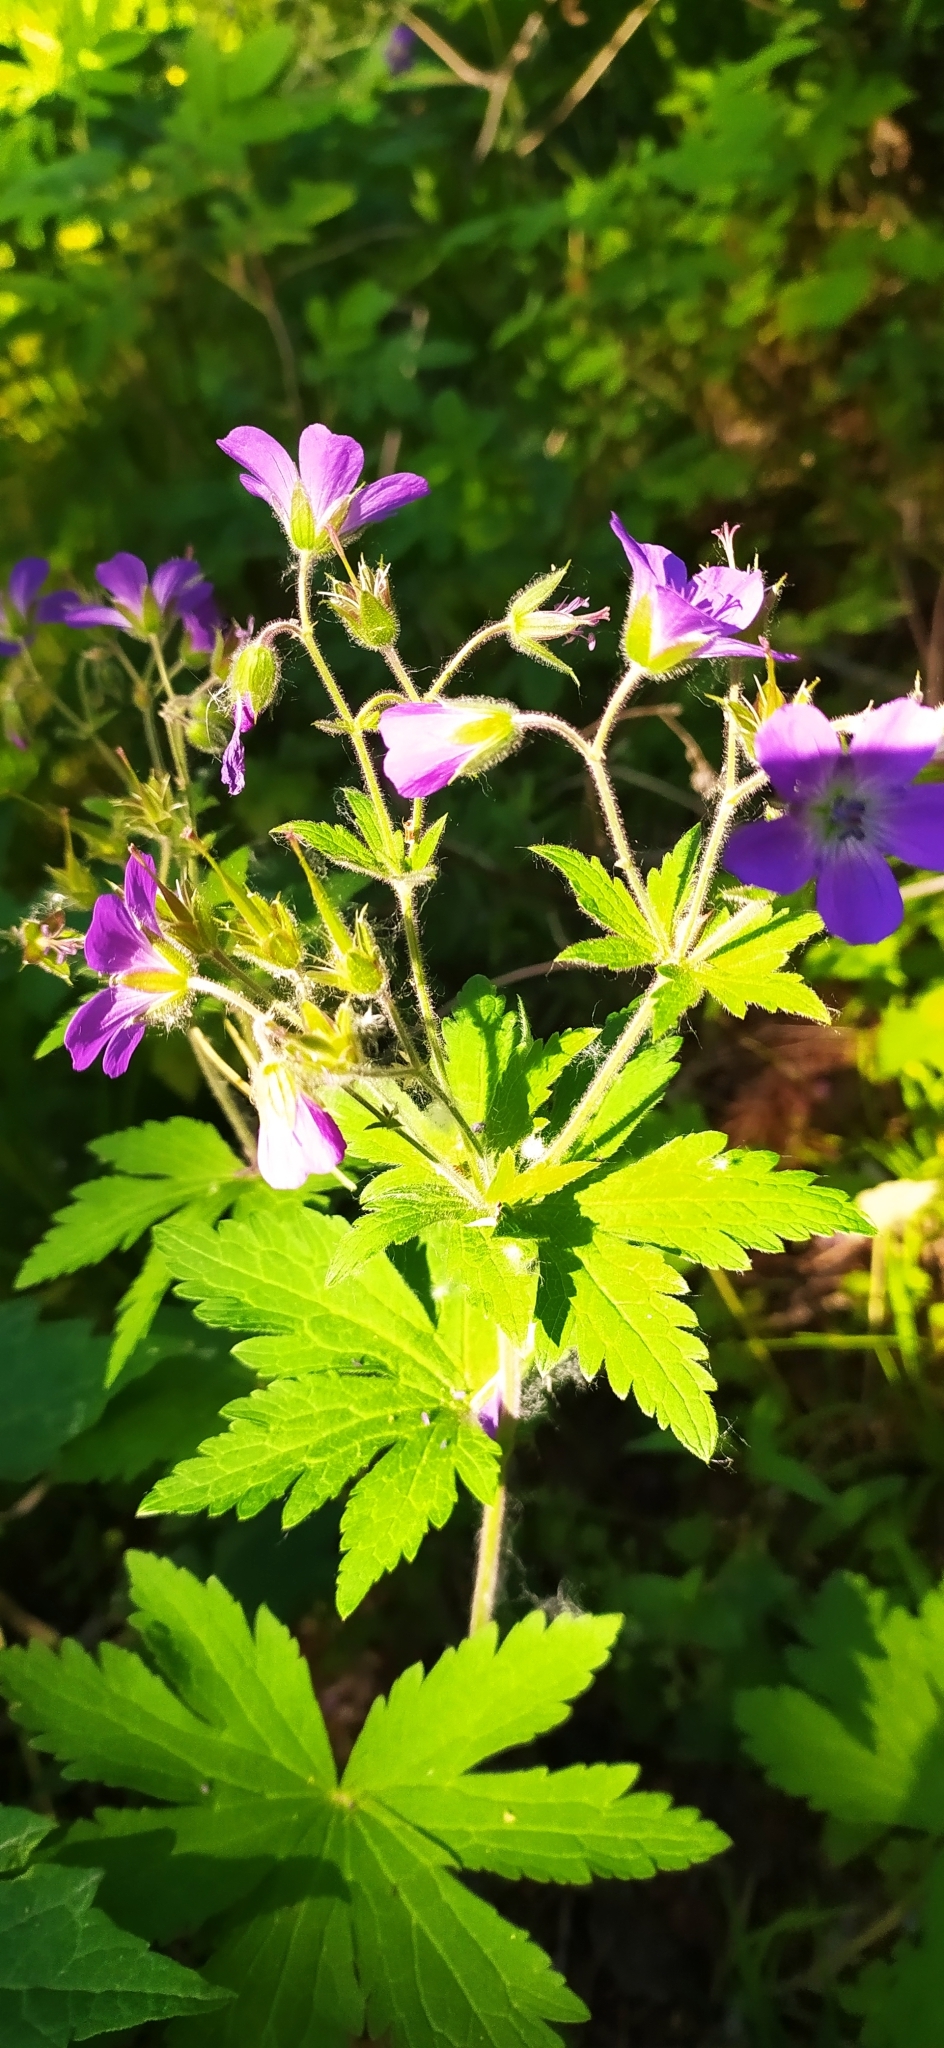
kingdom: Plantae
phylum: Tracheophyta
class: Magnoliopsida
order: Geraniales
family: Geraniaceae
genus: Geranium
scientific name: Geranium sylvaticum
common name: Wood crane's-bill
